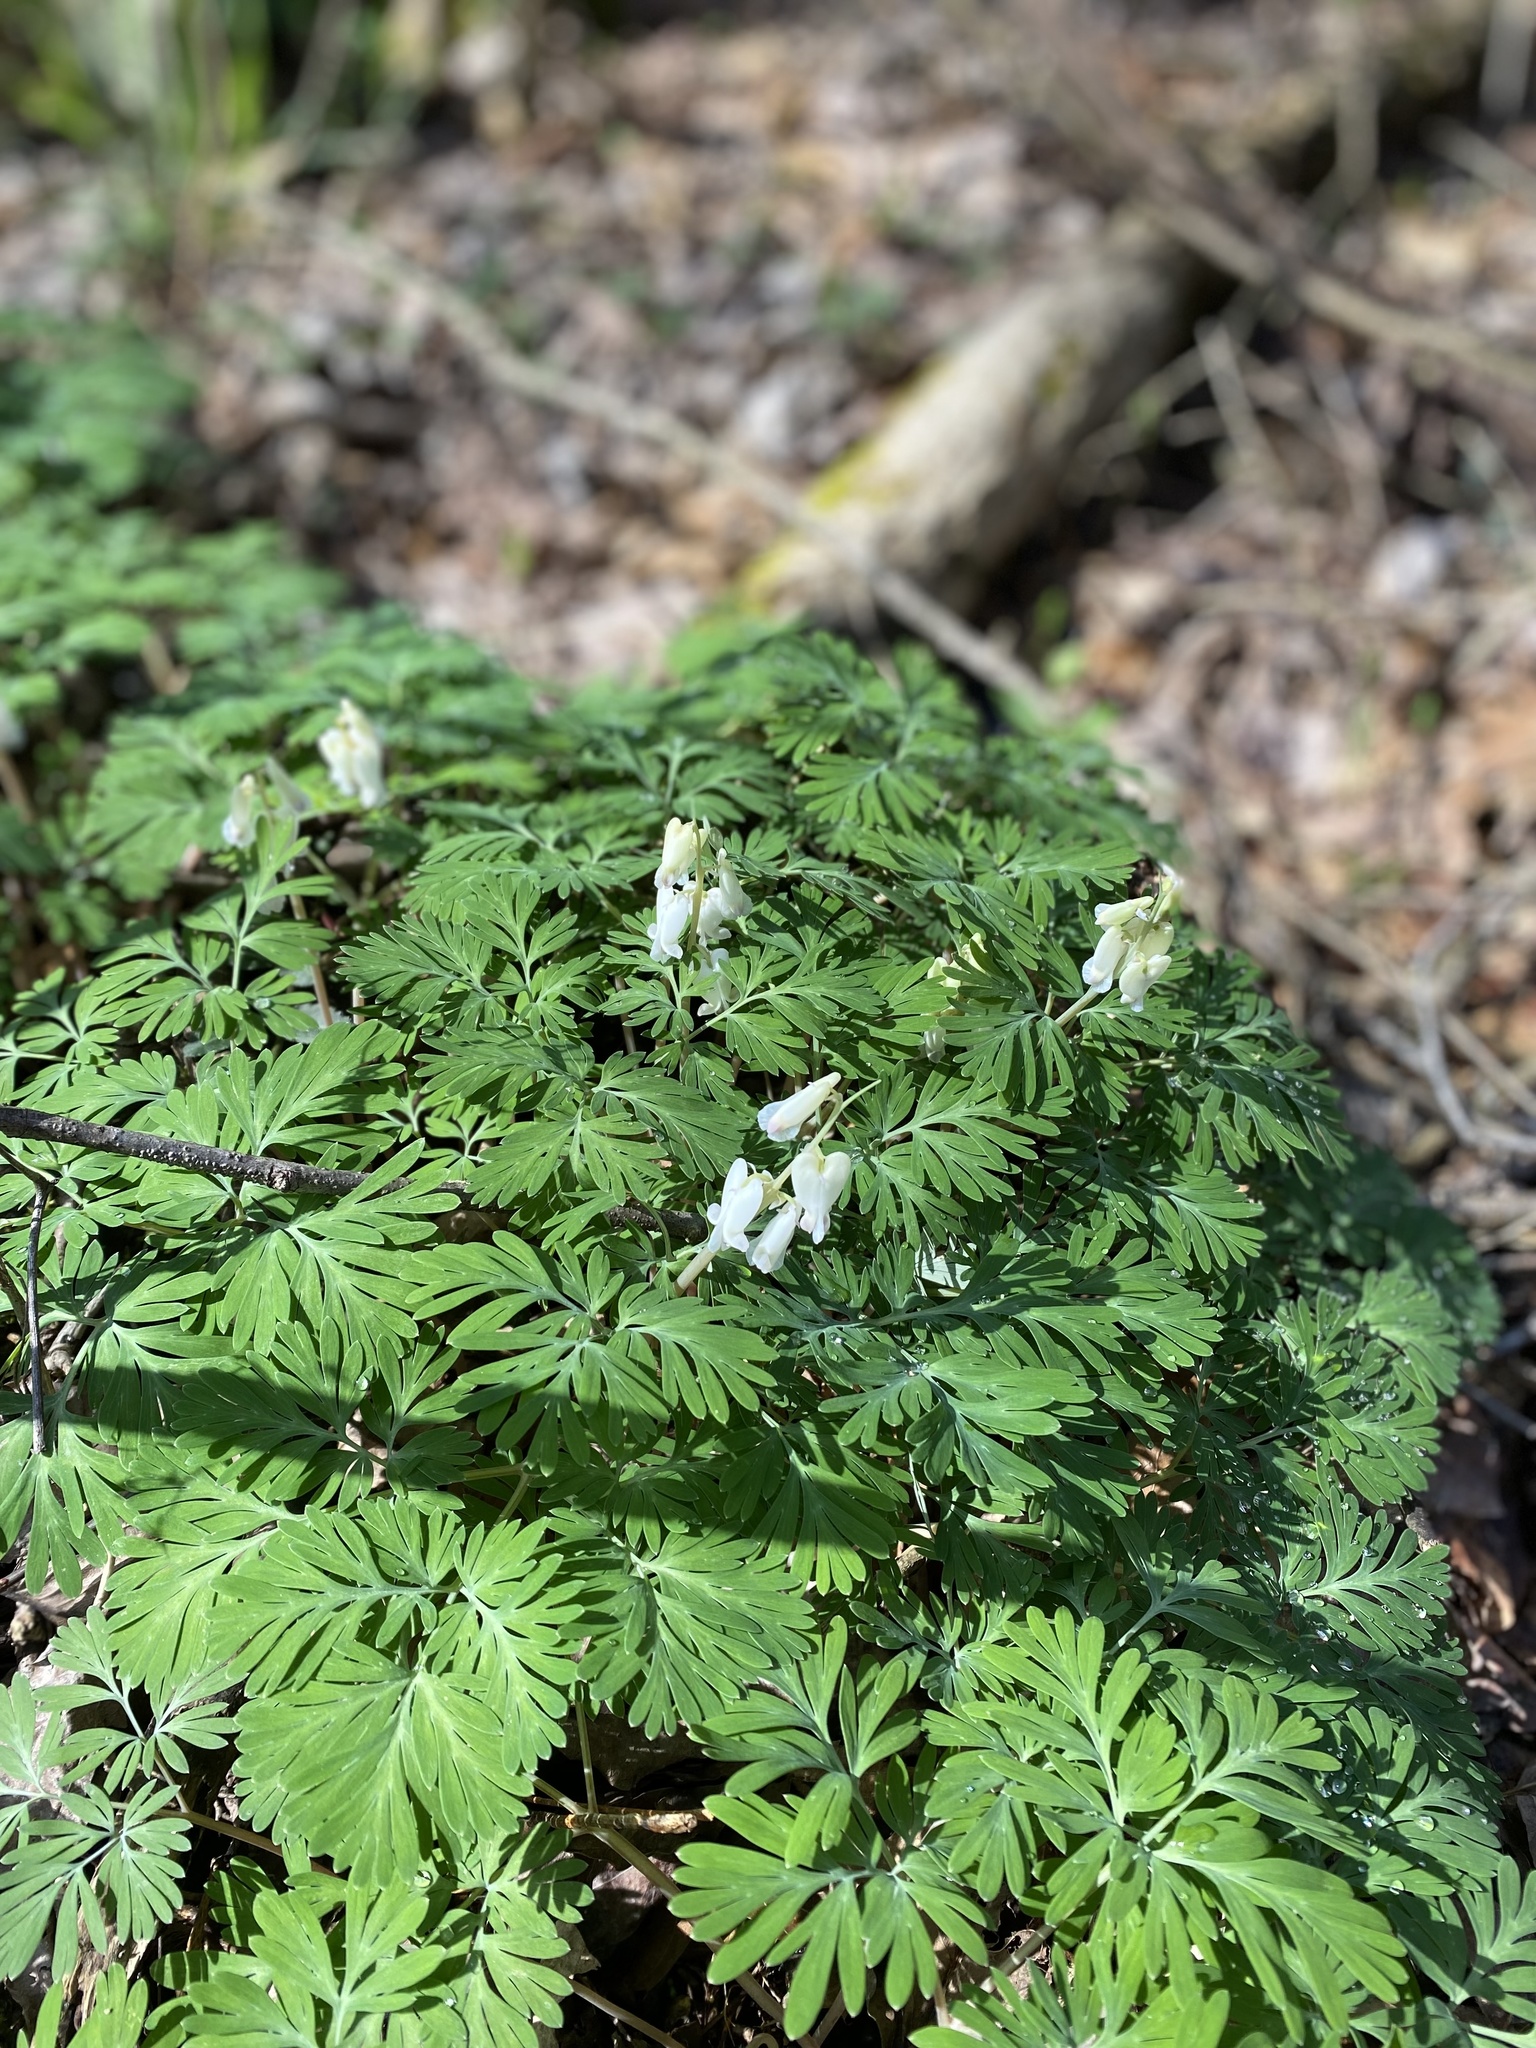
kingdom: Plantae
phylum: Tracheophyta
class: Magnoliopsida
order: Ranunculales
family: Papaveraceae
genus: Dicentra
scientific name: Dicentra canadensis
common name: Squirrel-corn
